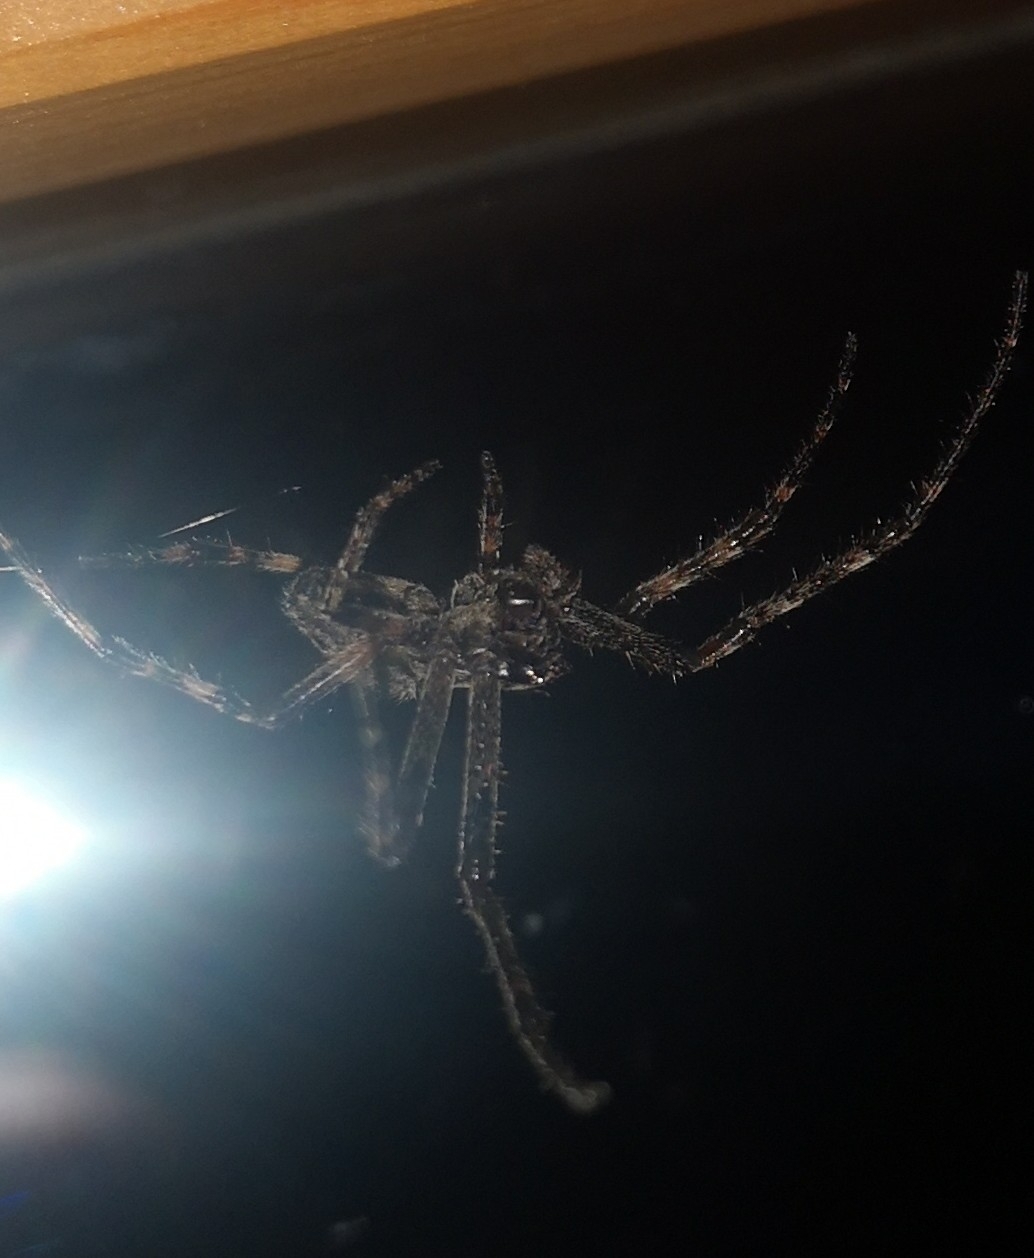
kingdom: Animalia
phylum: Arthropoda
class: Arachnida
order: Araneae
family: Araneidae
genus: Nuctenea
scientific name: Nuctenea umbratica
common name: Toad spider
